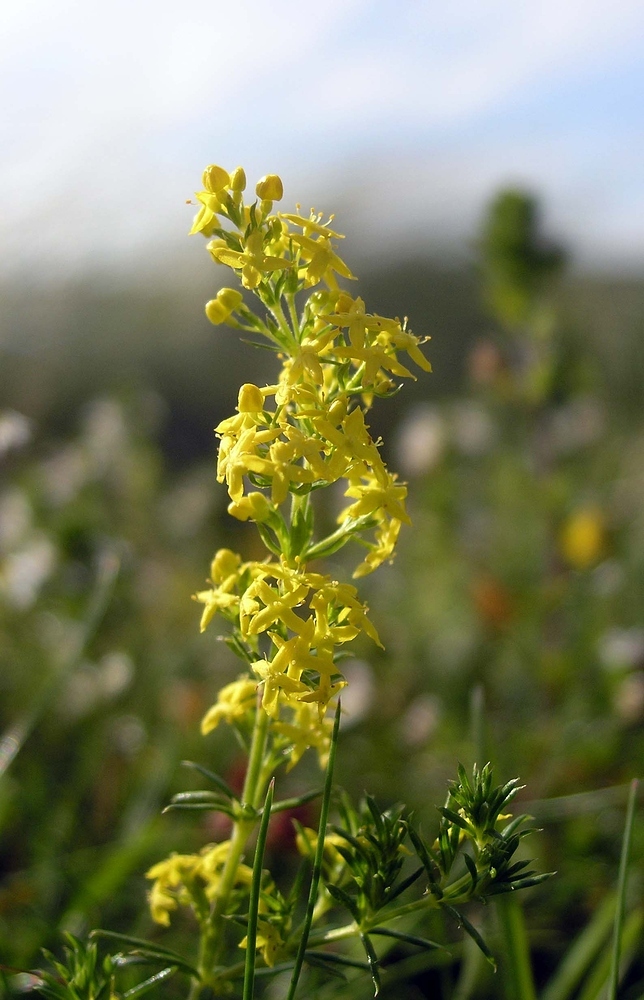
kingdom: Plantae
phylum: Tracheophyta
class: Magnoliopsida
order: Gentianales
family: Rubiaceae
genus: Galium
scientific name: Galium verum
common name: Lady's bedstraw
